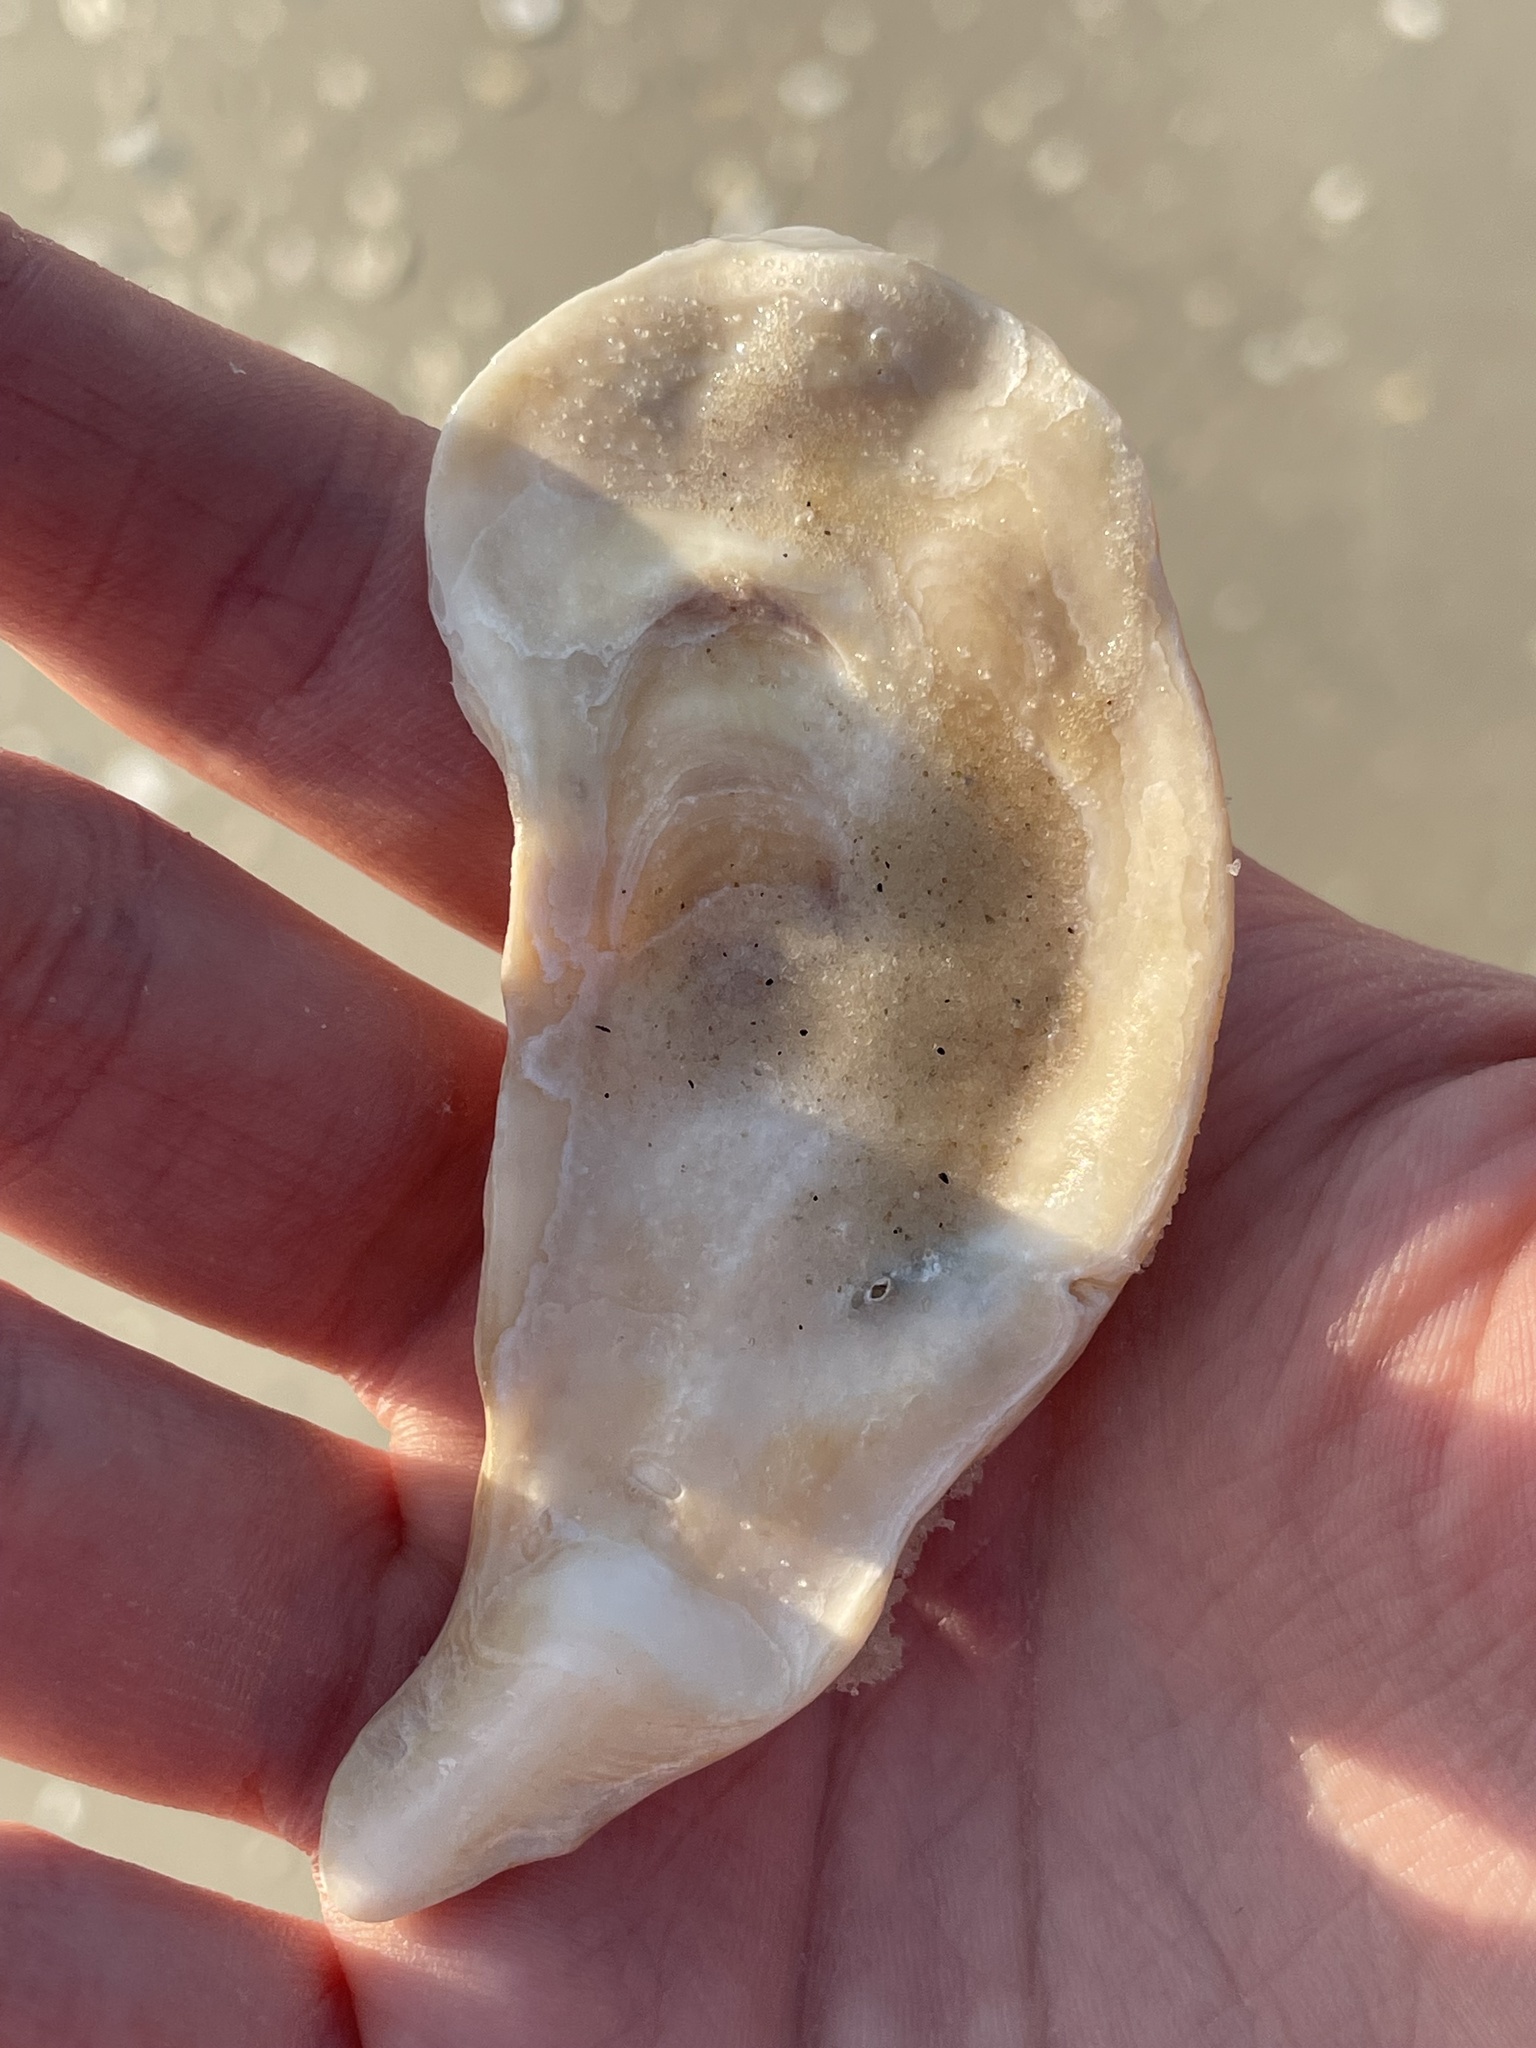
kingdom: Animalia
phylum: Mollusca
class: Bivalvia
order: Ostreida
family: Ostreidae
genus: Crassostrea
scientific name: Crassostrea virginica
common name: American oyster
